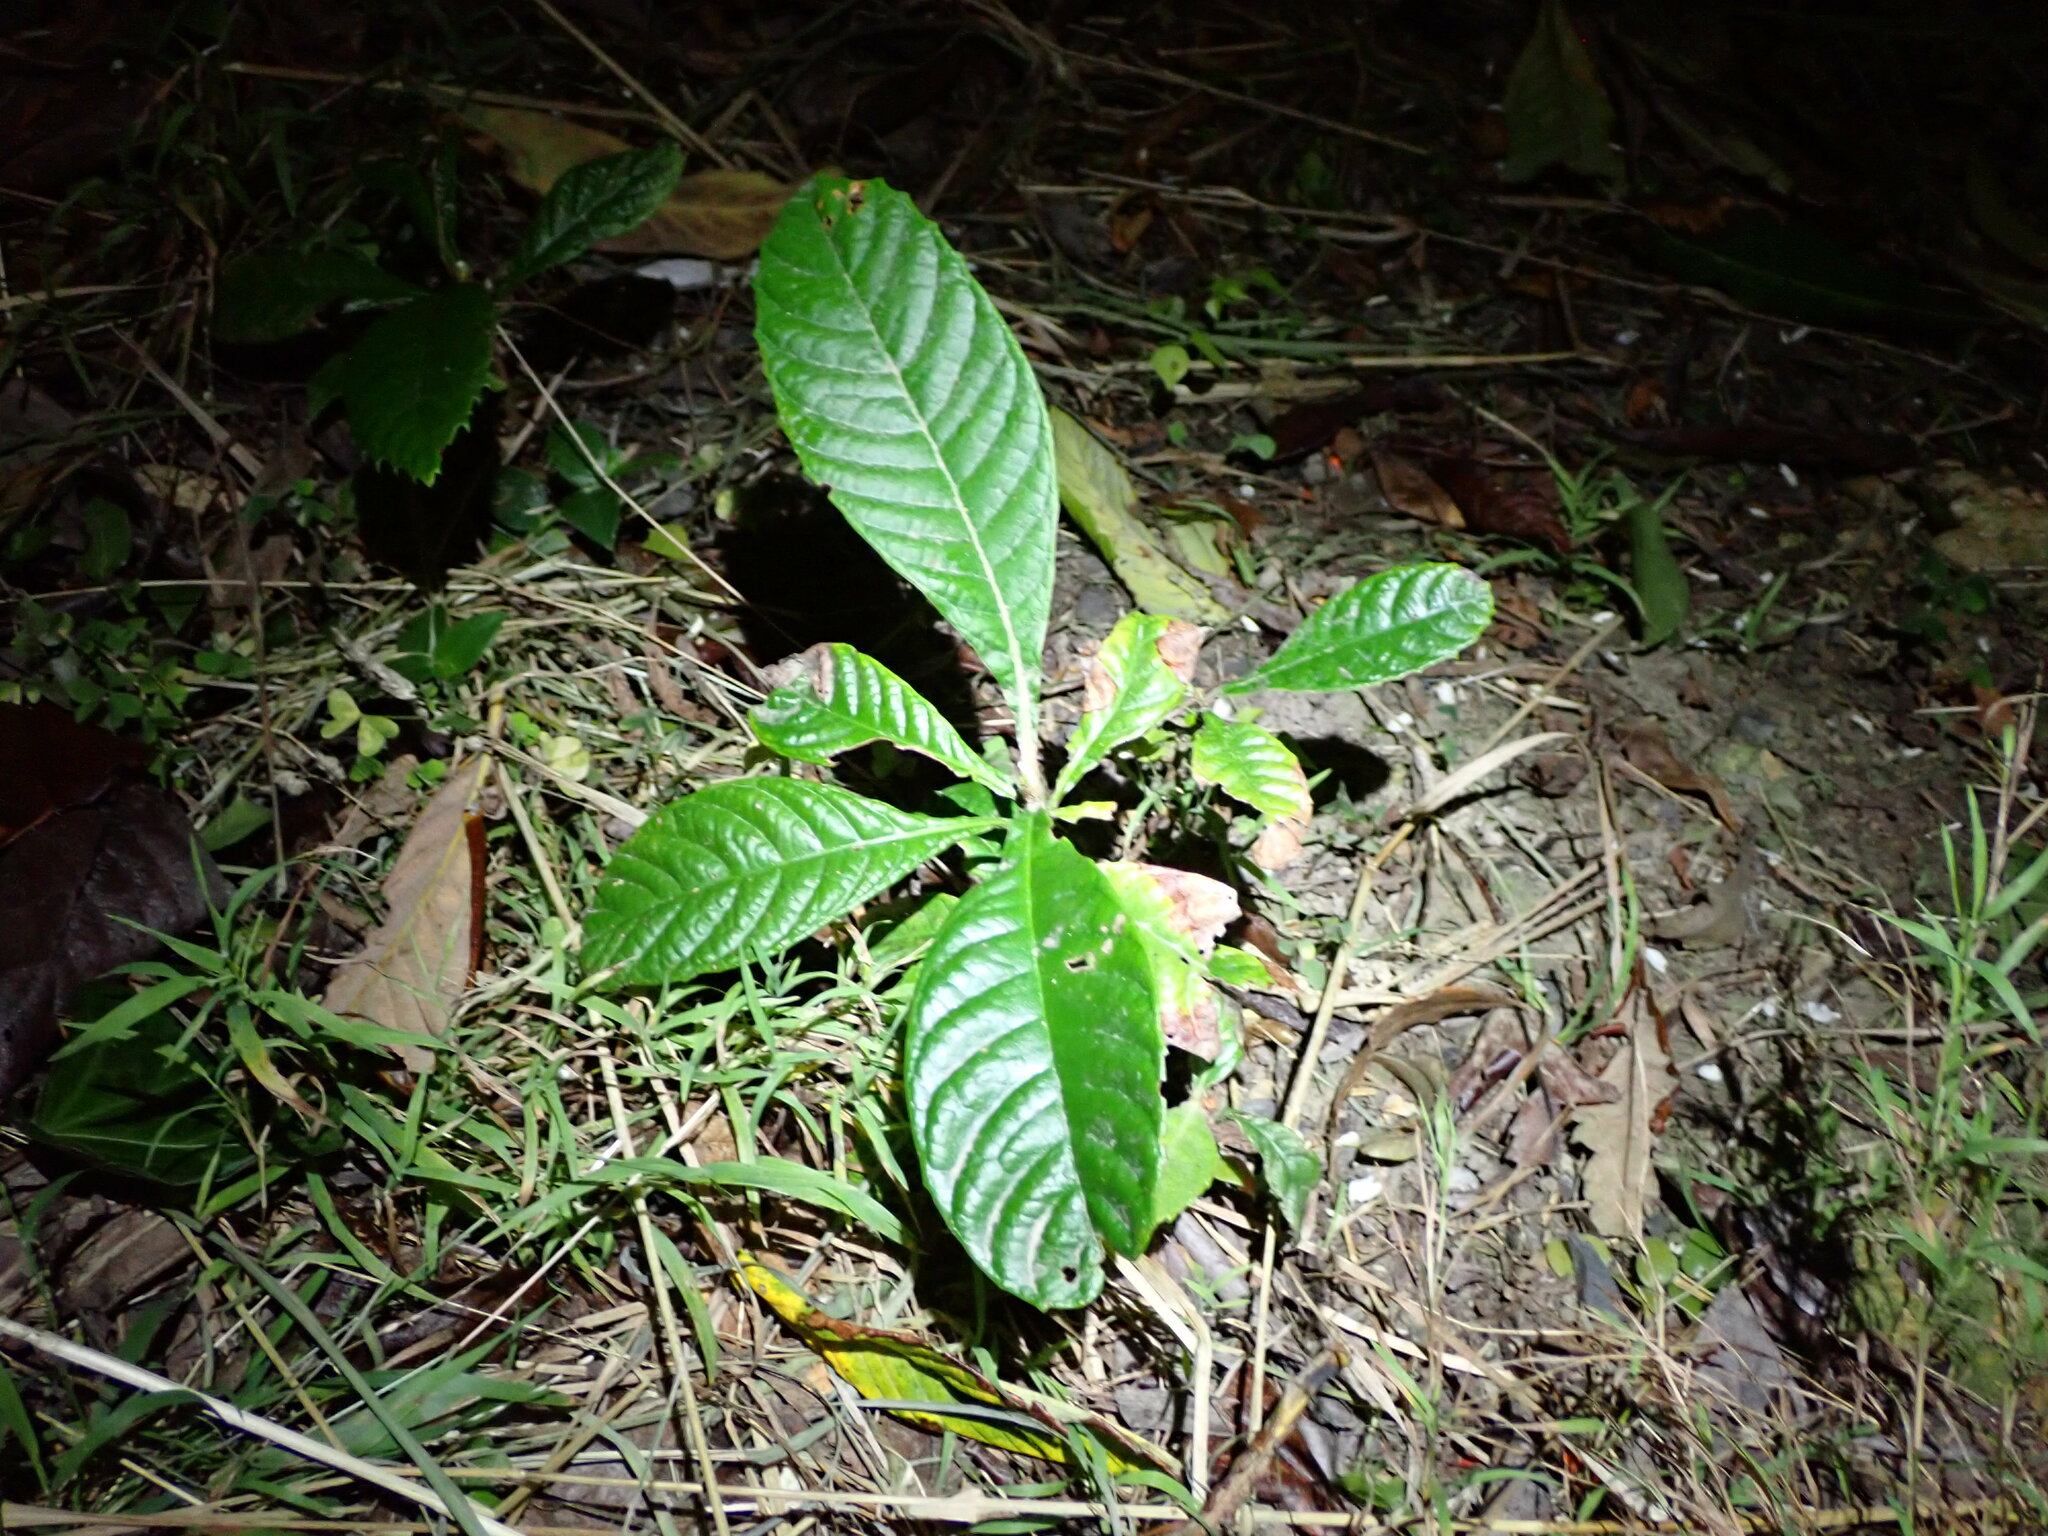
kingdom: Plantae
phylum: Tracheophyta
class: Magnoliopsida
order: Rosales
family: Rosaceae
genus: Rhaphiolepis
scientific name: Rhaphiolepis bibas
